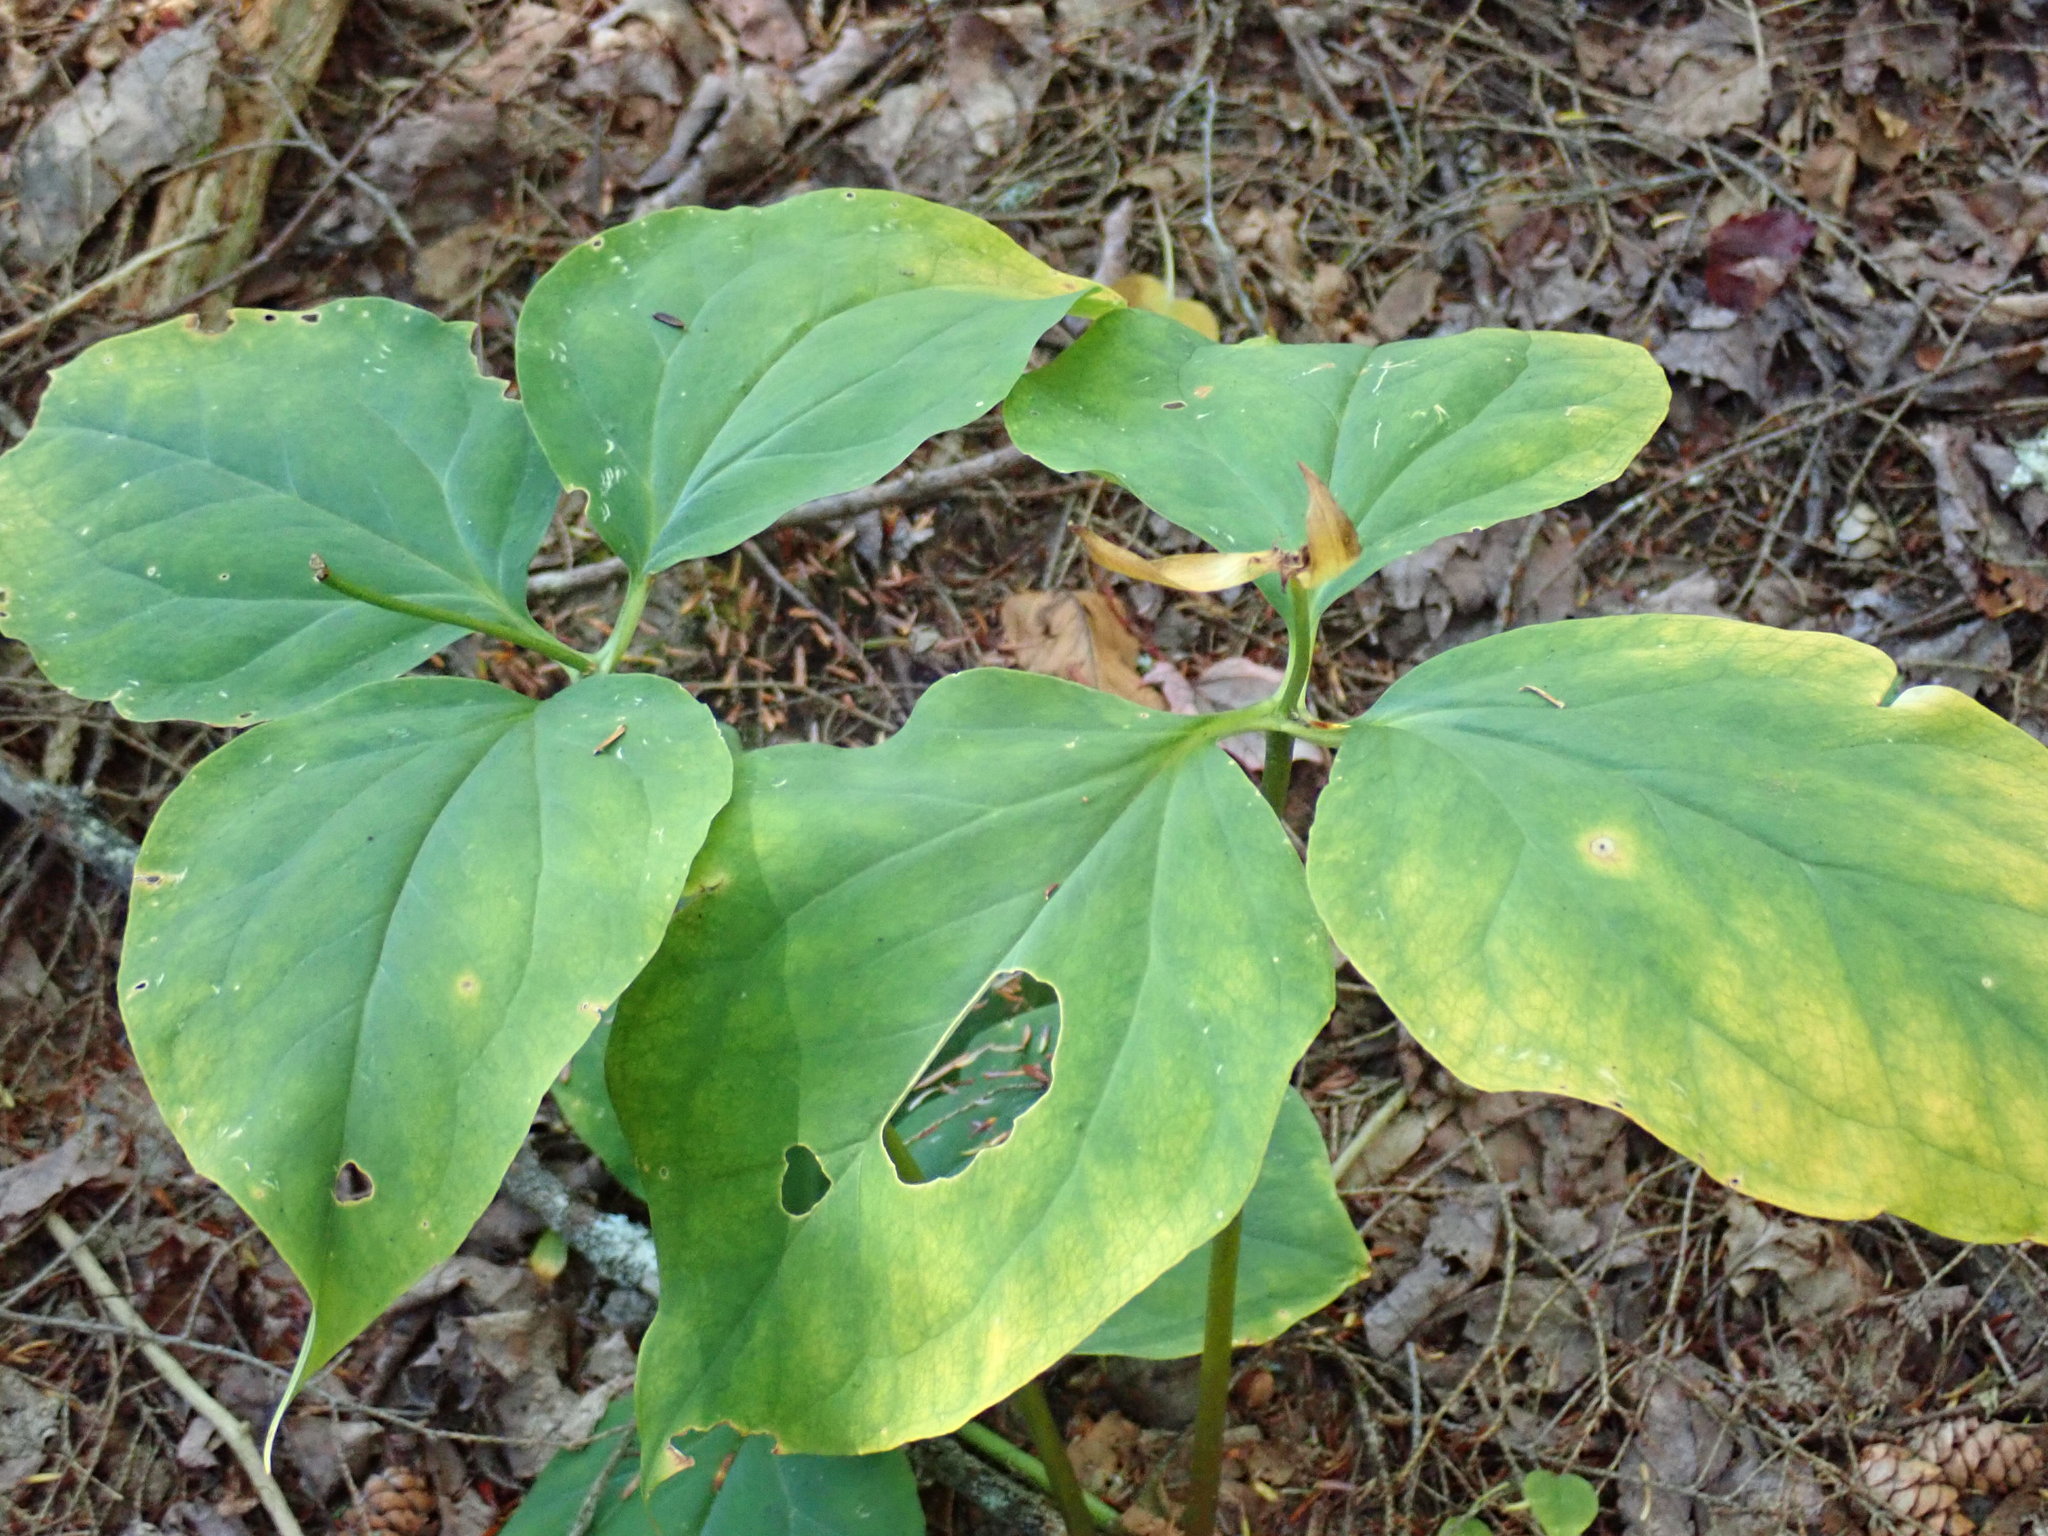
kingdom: Plantae
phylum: Tracheophyta
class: Liliopsida
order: Liliales
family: Melanthiaceae
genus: Trillium
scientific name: Trillium undulatum
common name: Paint trillium
